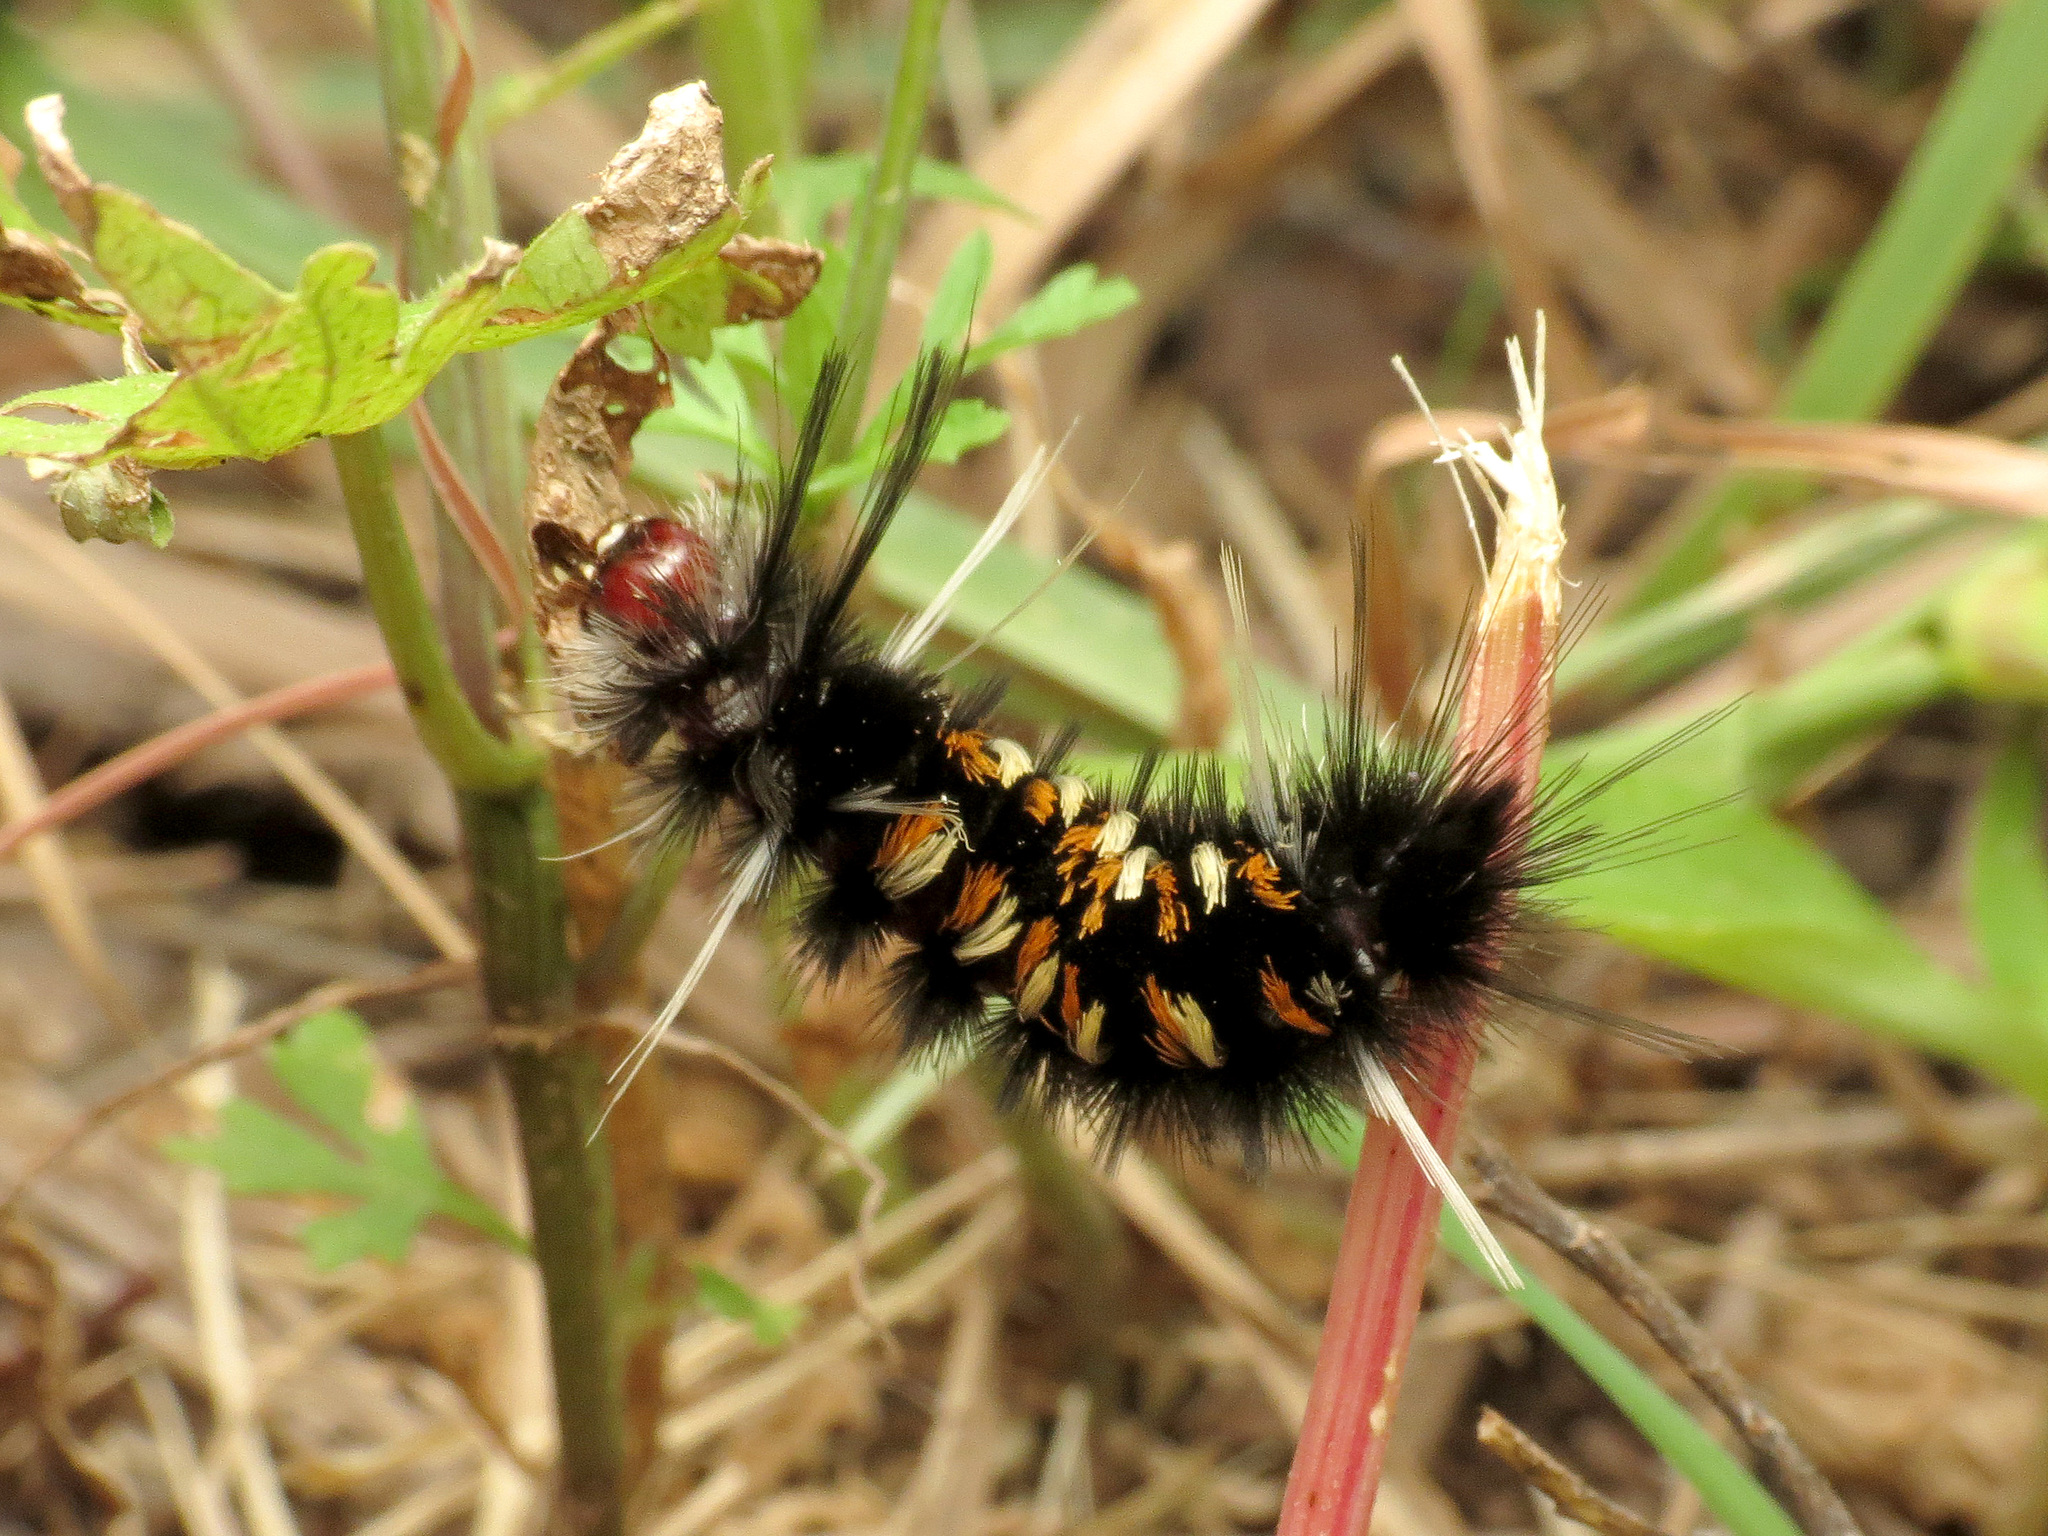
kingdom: Animalia
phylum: Arthropoda
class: Insecta
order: Lepidoptera
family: Erebidae
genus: Euchaetes
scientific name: Euchaetes
